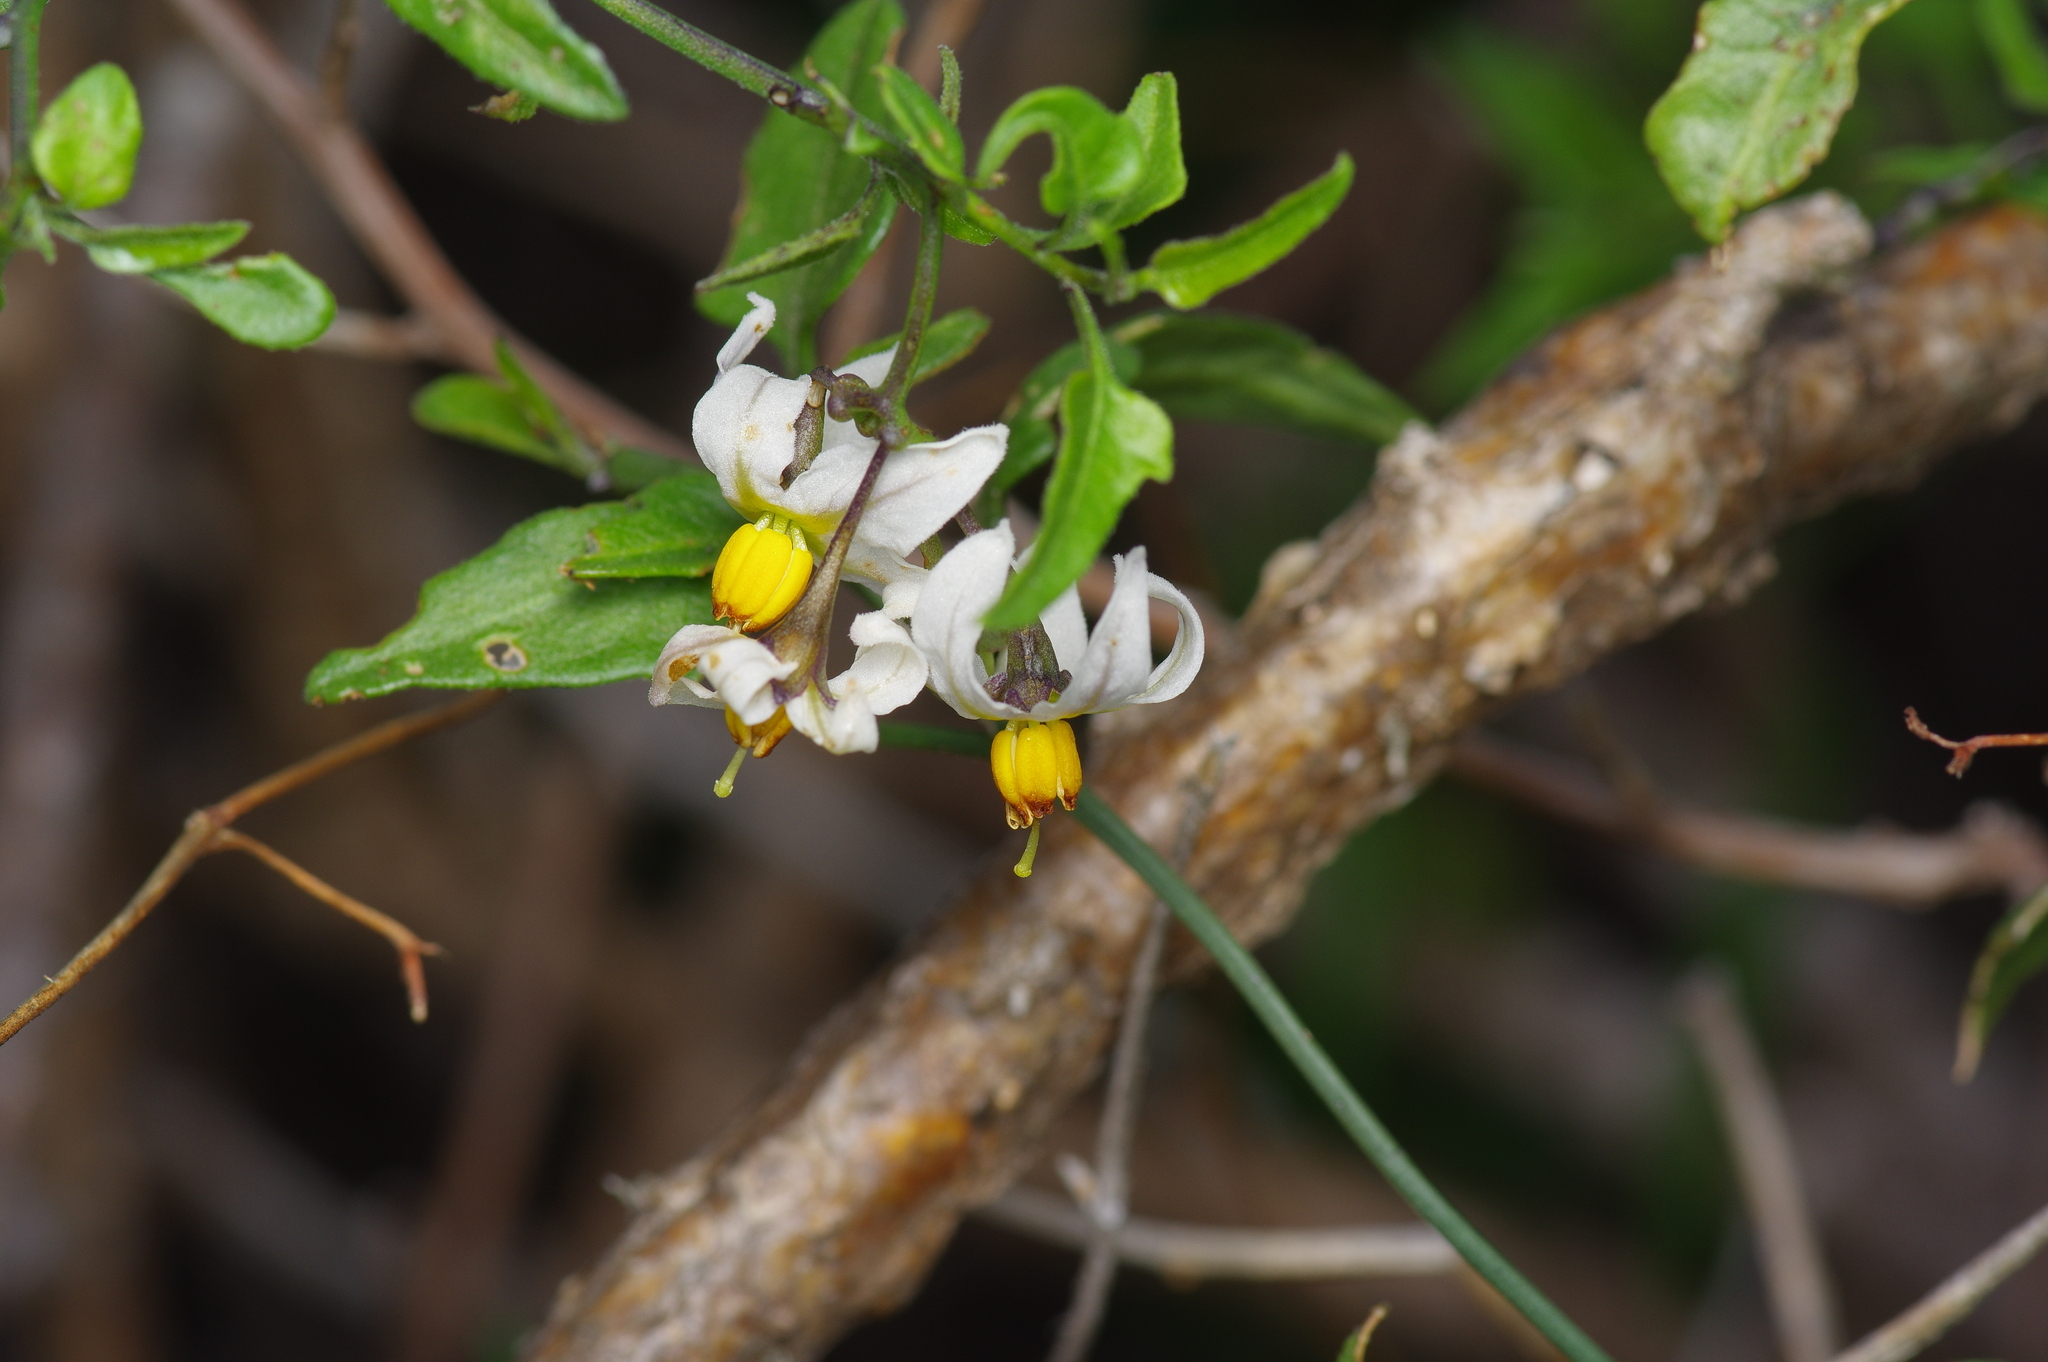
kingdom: Plantae
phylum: Tracheophyta
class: Magnoliopsida
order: Solanales
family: Solanaceae
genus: Solanum
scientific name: Solanum triquetrum
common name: Texas nightshade
